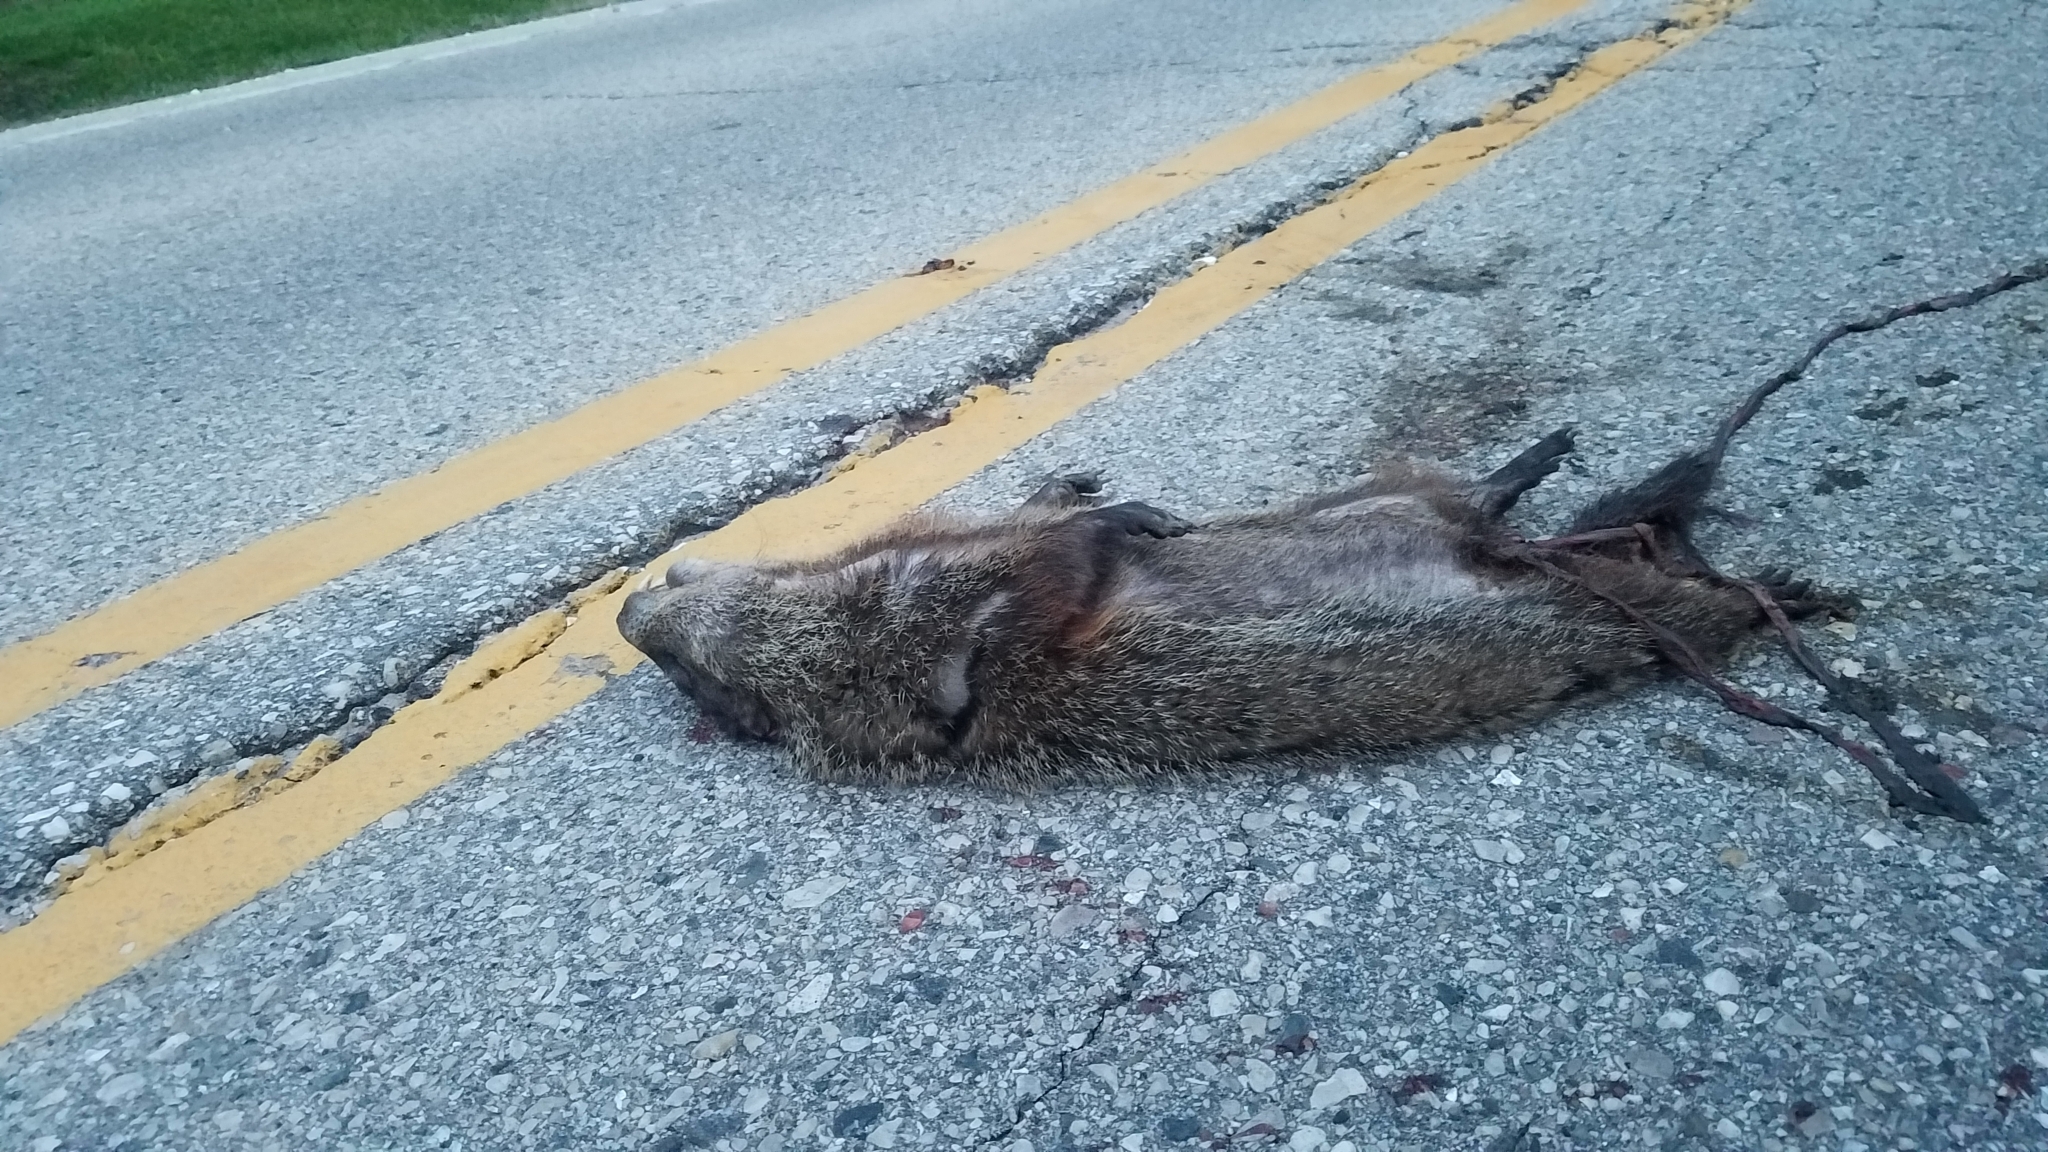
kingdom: Animalia
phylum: Chordata
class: Mammalia
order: Rodentia
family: Sciuridae
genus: Marmota
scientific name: Marmota monax
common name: Groundhog
